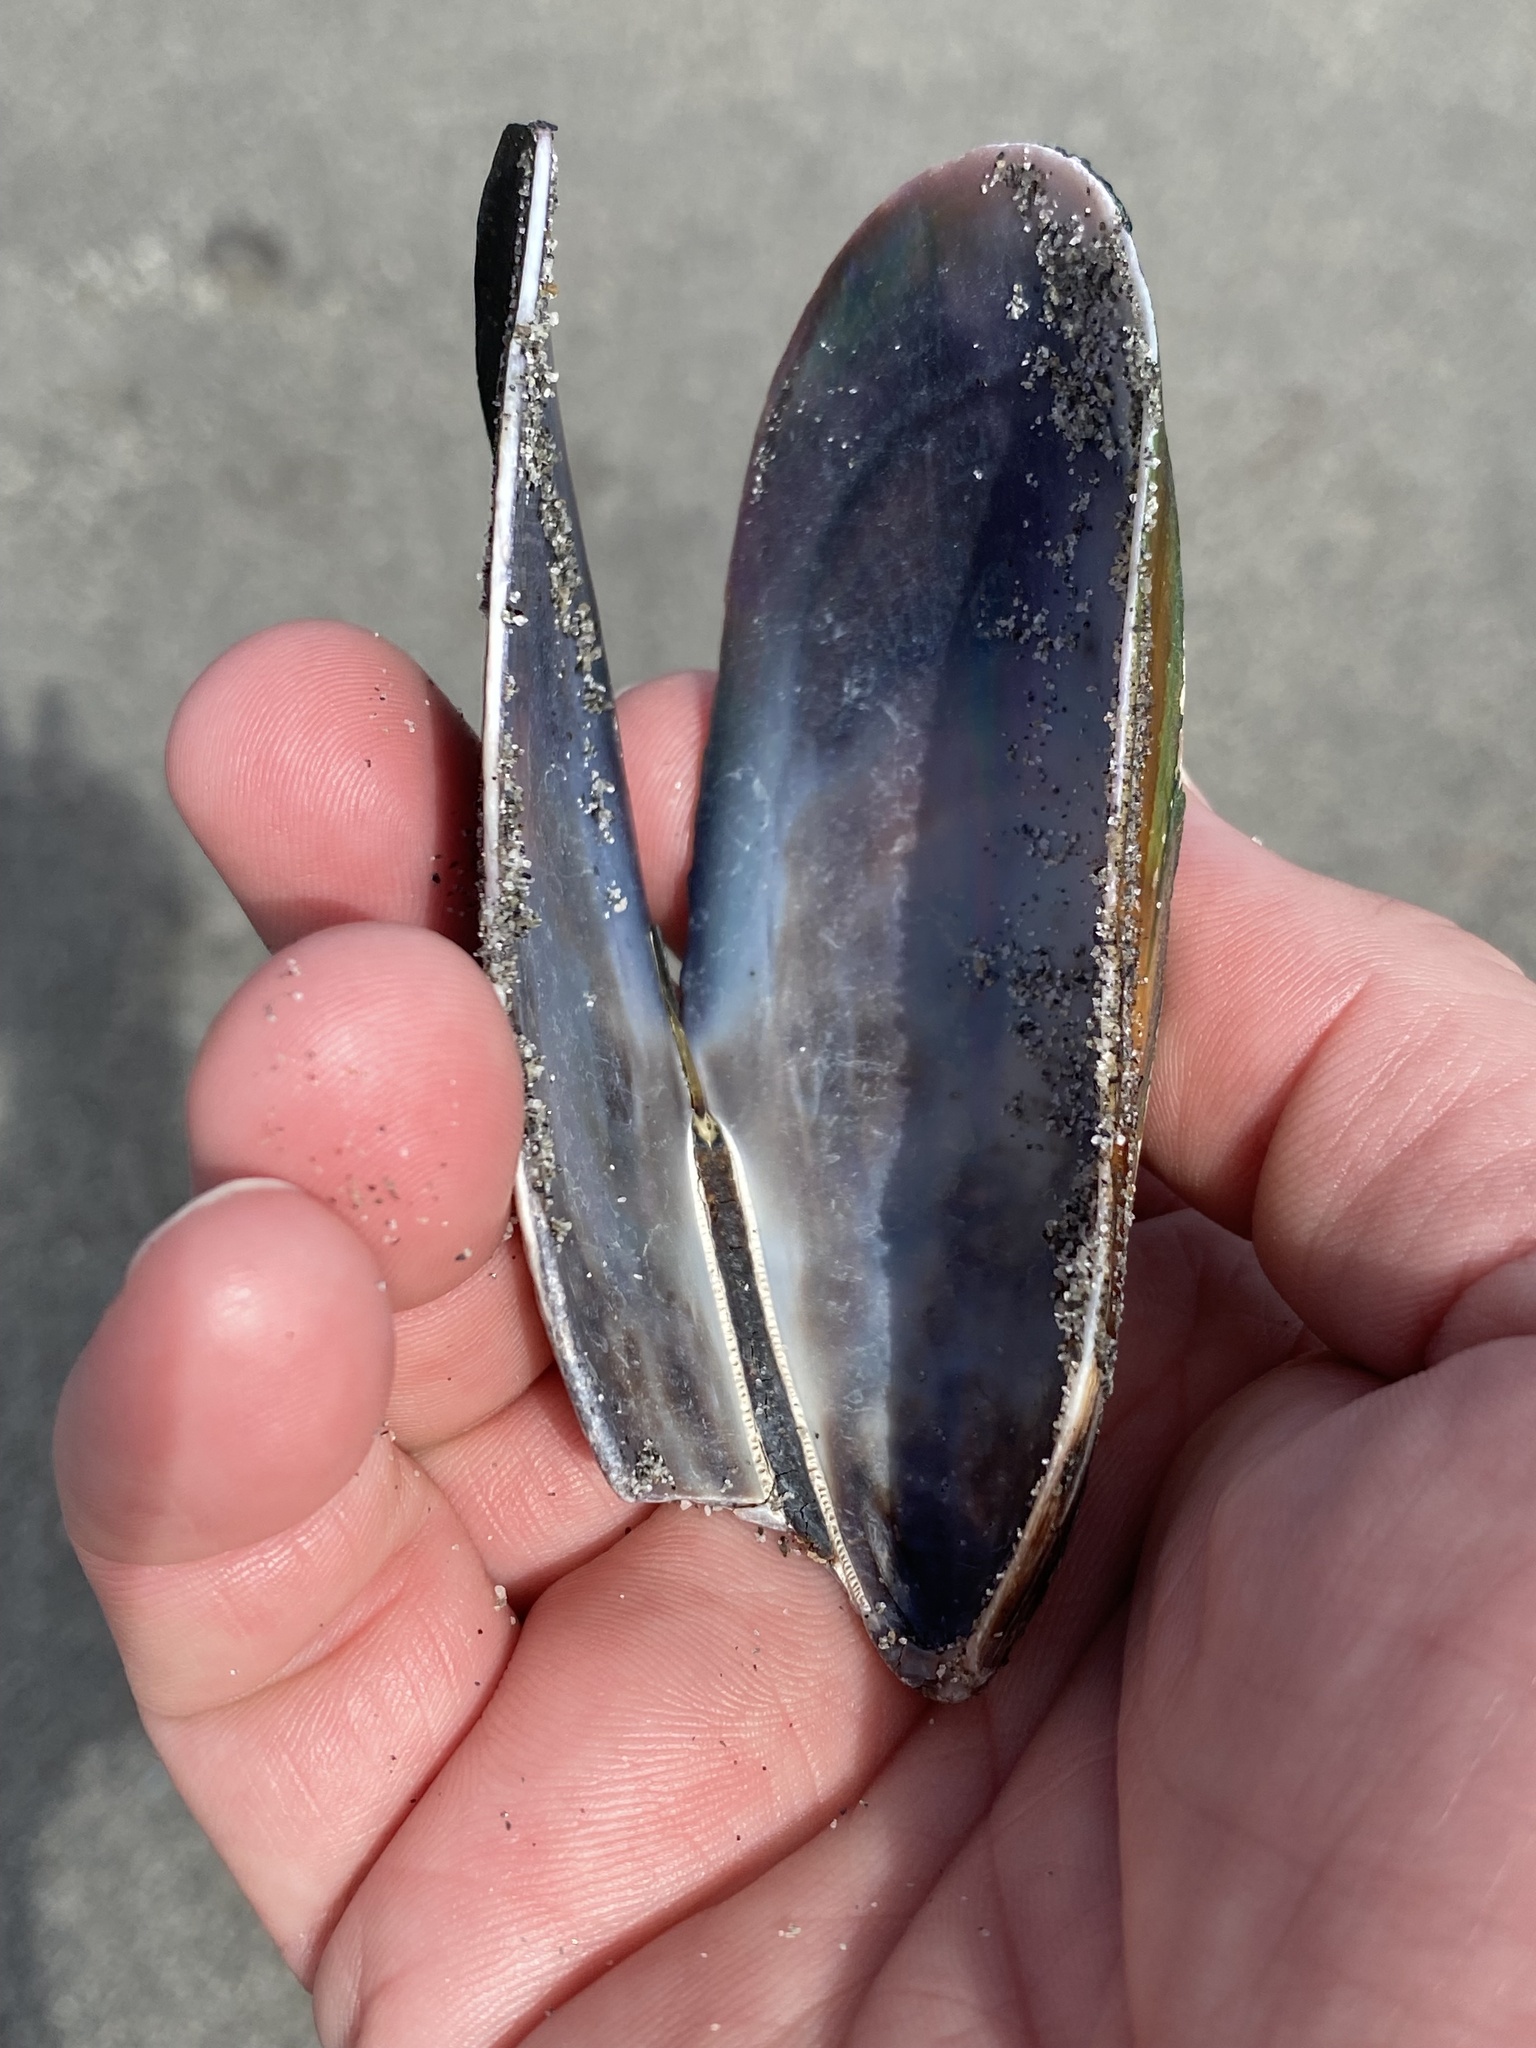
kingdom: Animalia
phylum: Mollusca
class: Bivalvia
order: Mytilida
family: Mytilidae
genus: Perna
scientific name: Perna canaliculus
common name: New zealand greenshelltm
